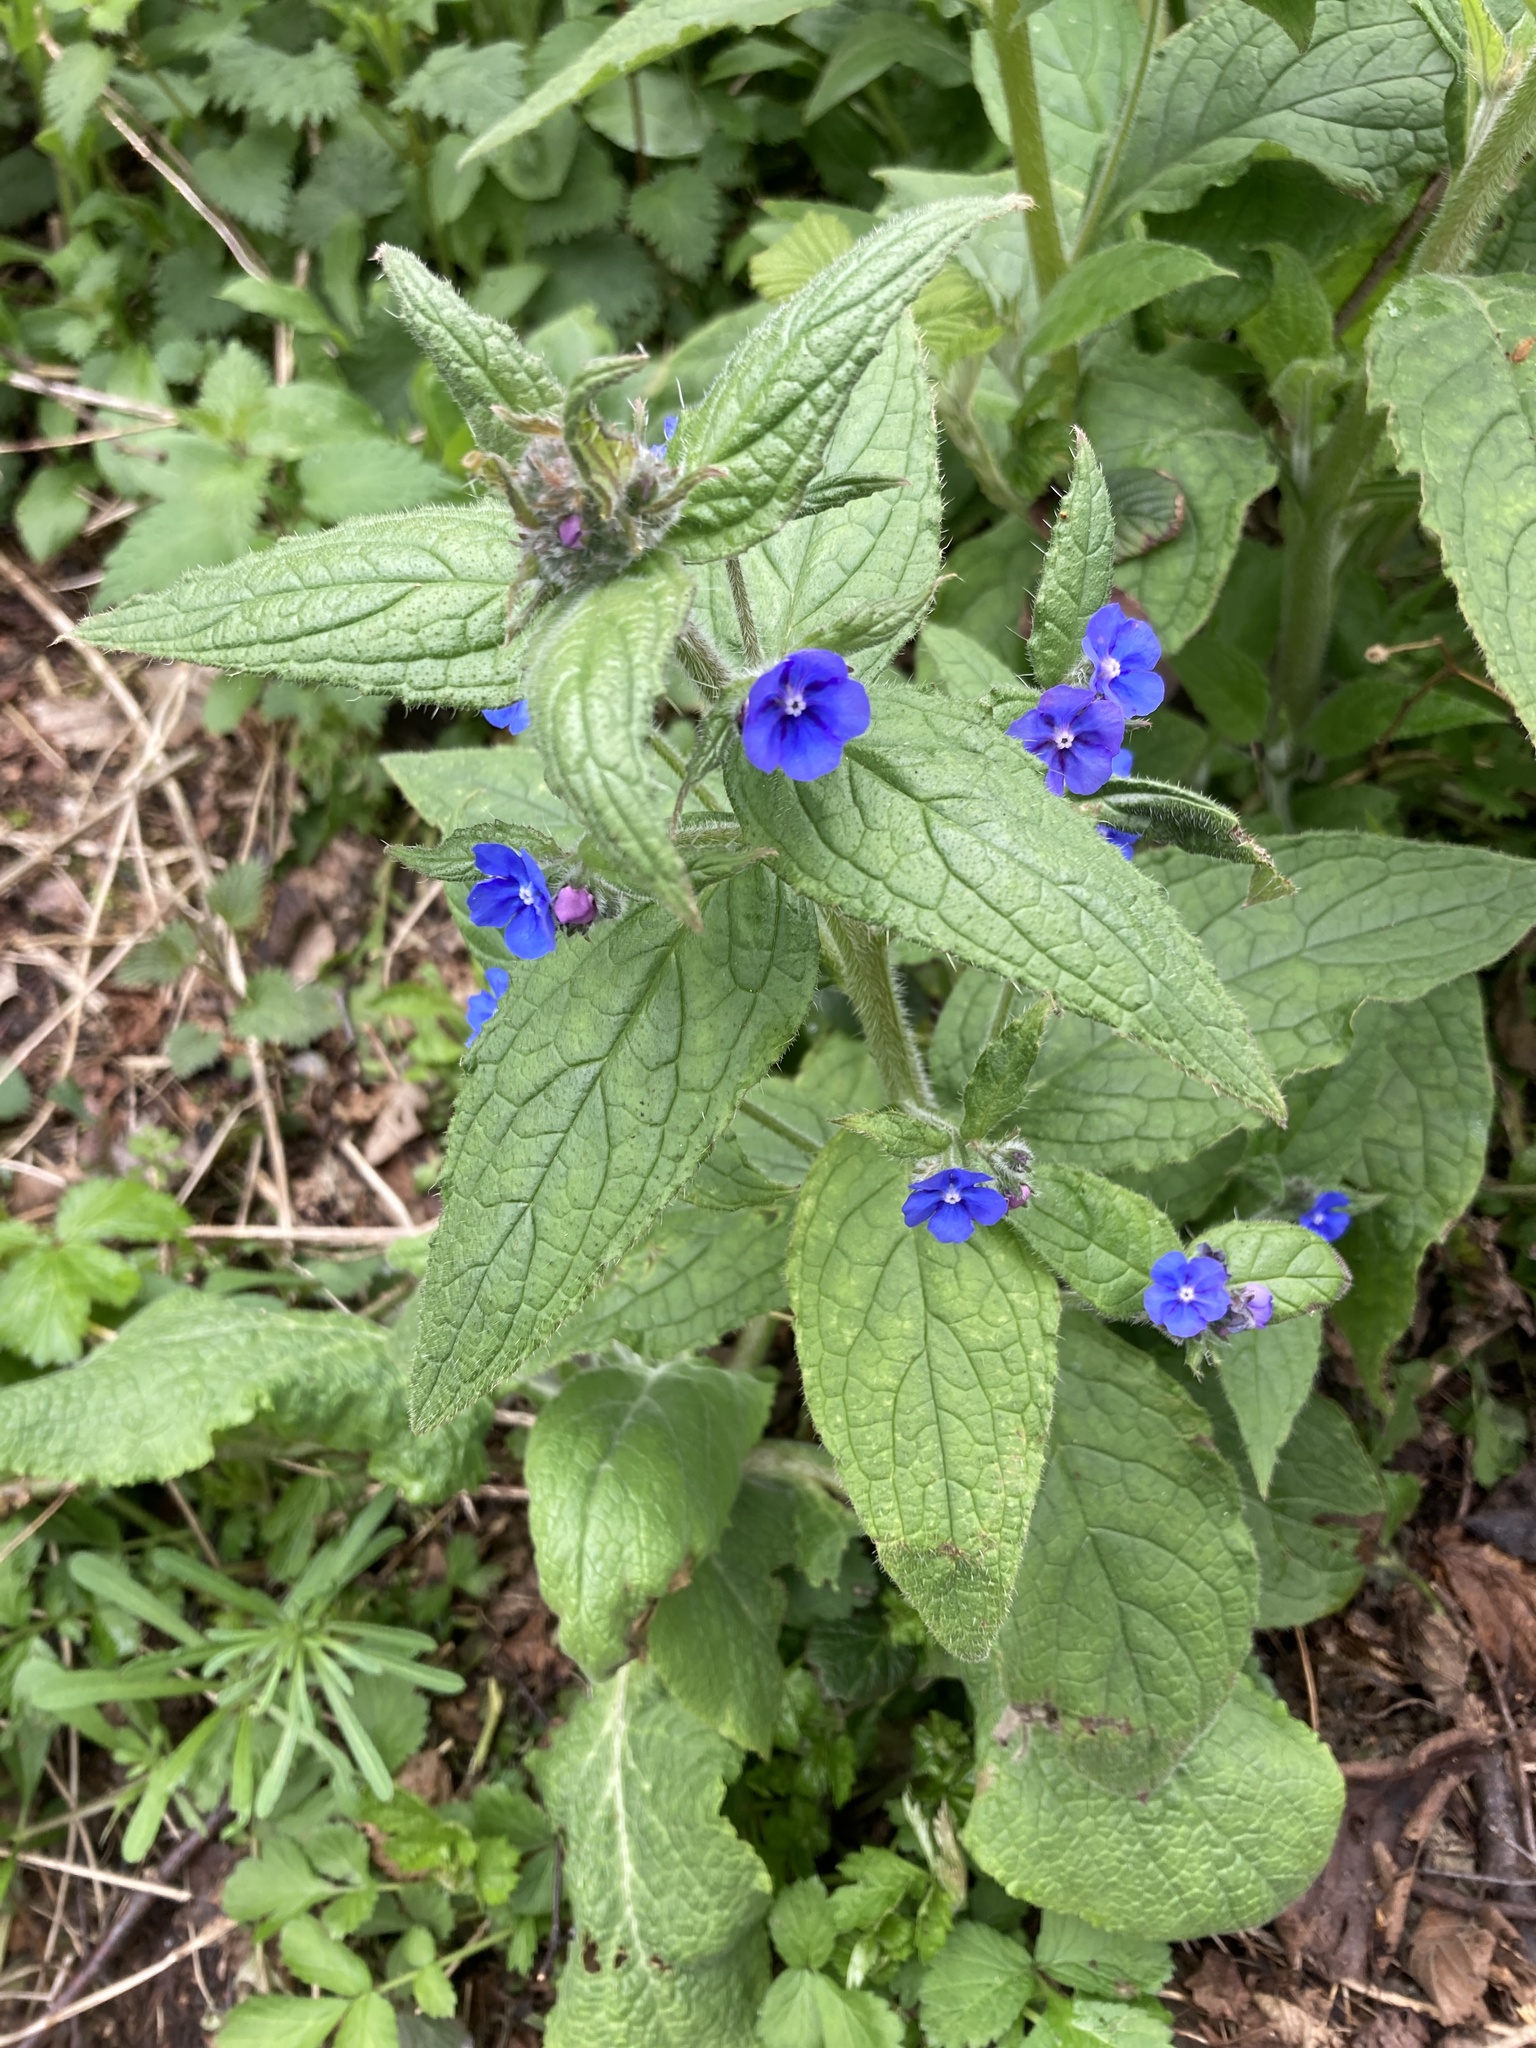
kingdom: Plantae
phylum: Tracheophyta
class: Magnoliopsida
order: Boraginales
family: Boraginaceae
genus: Pentaglottis
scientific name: Pentaglottis sempervirens
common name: Green alkanet
